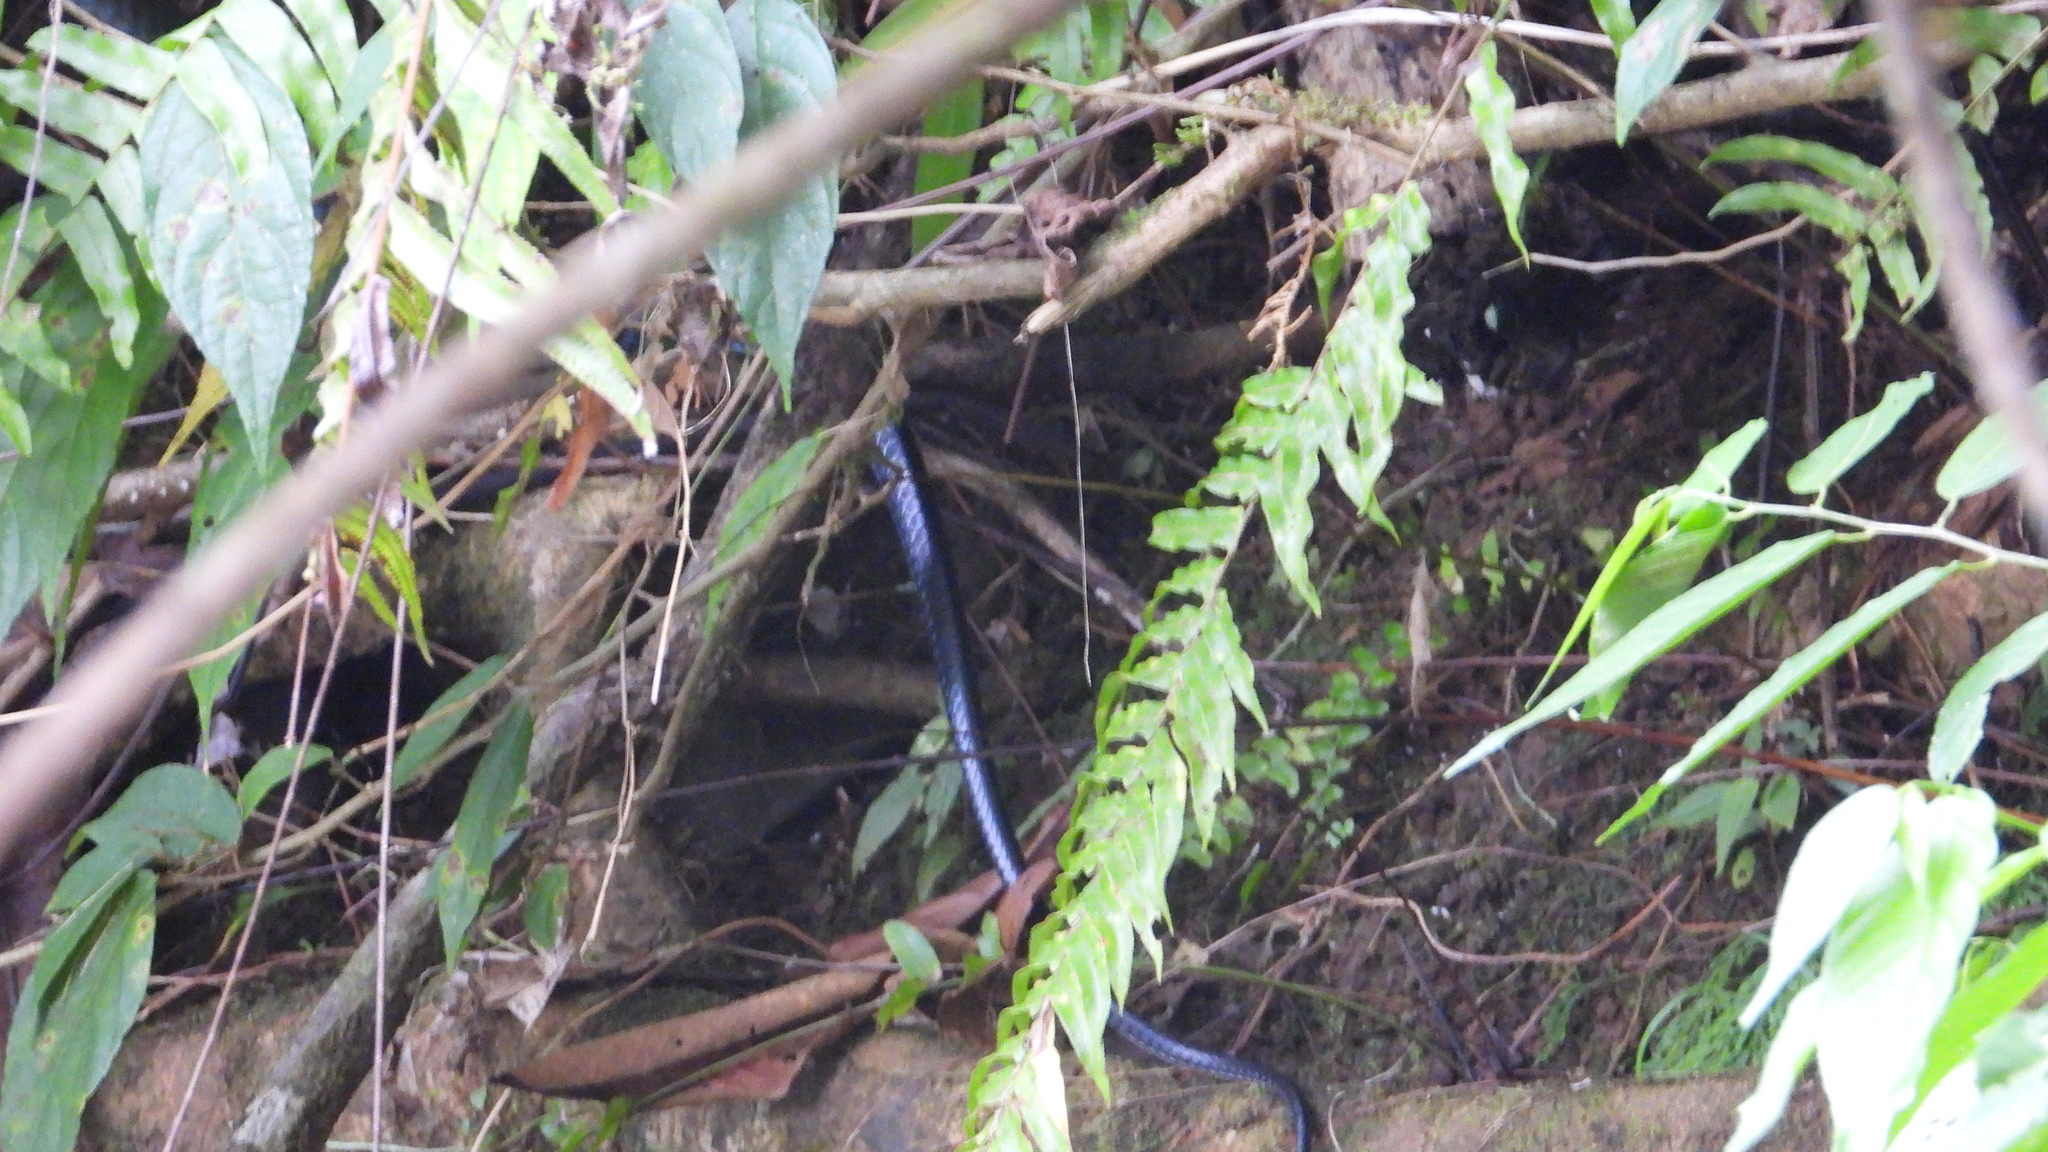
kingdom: Animalia
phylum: Chordata
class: Squamata
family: Colubridae
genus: Chironius
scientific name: Chironius flavopictus
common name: Sipo
